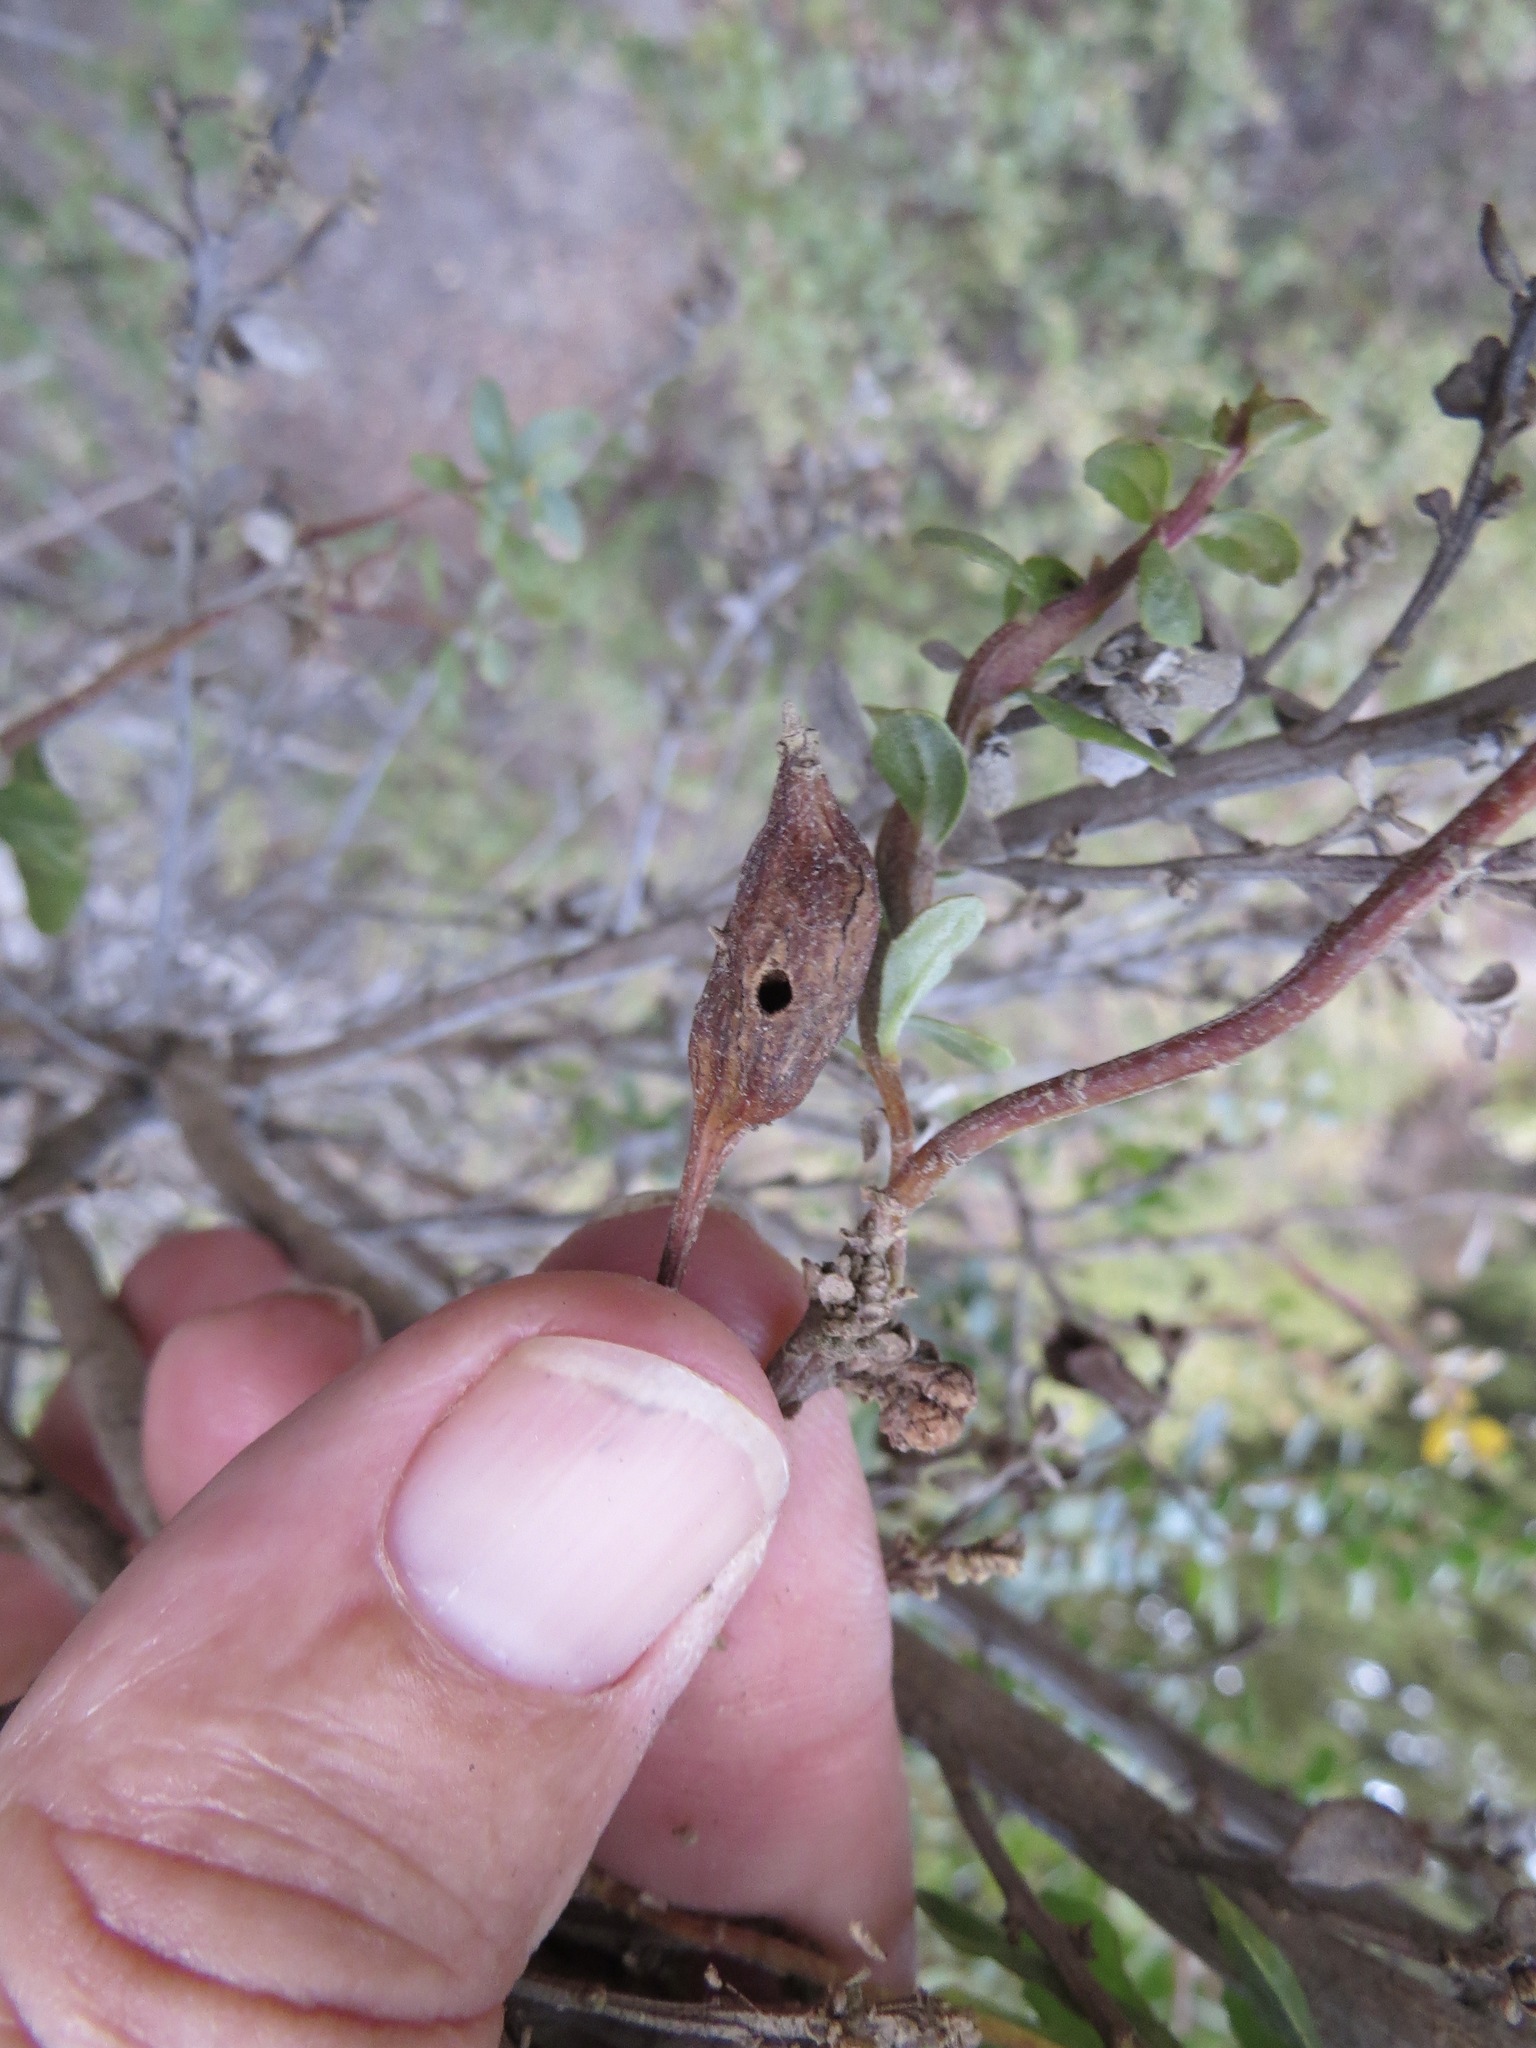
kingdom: Animalia
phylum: Arthropoda
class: Insecta
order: Lepidoptera
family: Gelechiidae
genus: Gnorimoschema
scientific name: Gnorimoschema baccharisella
